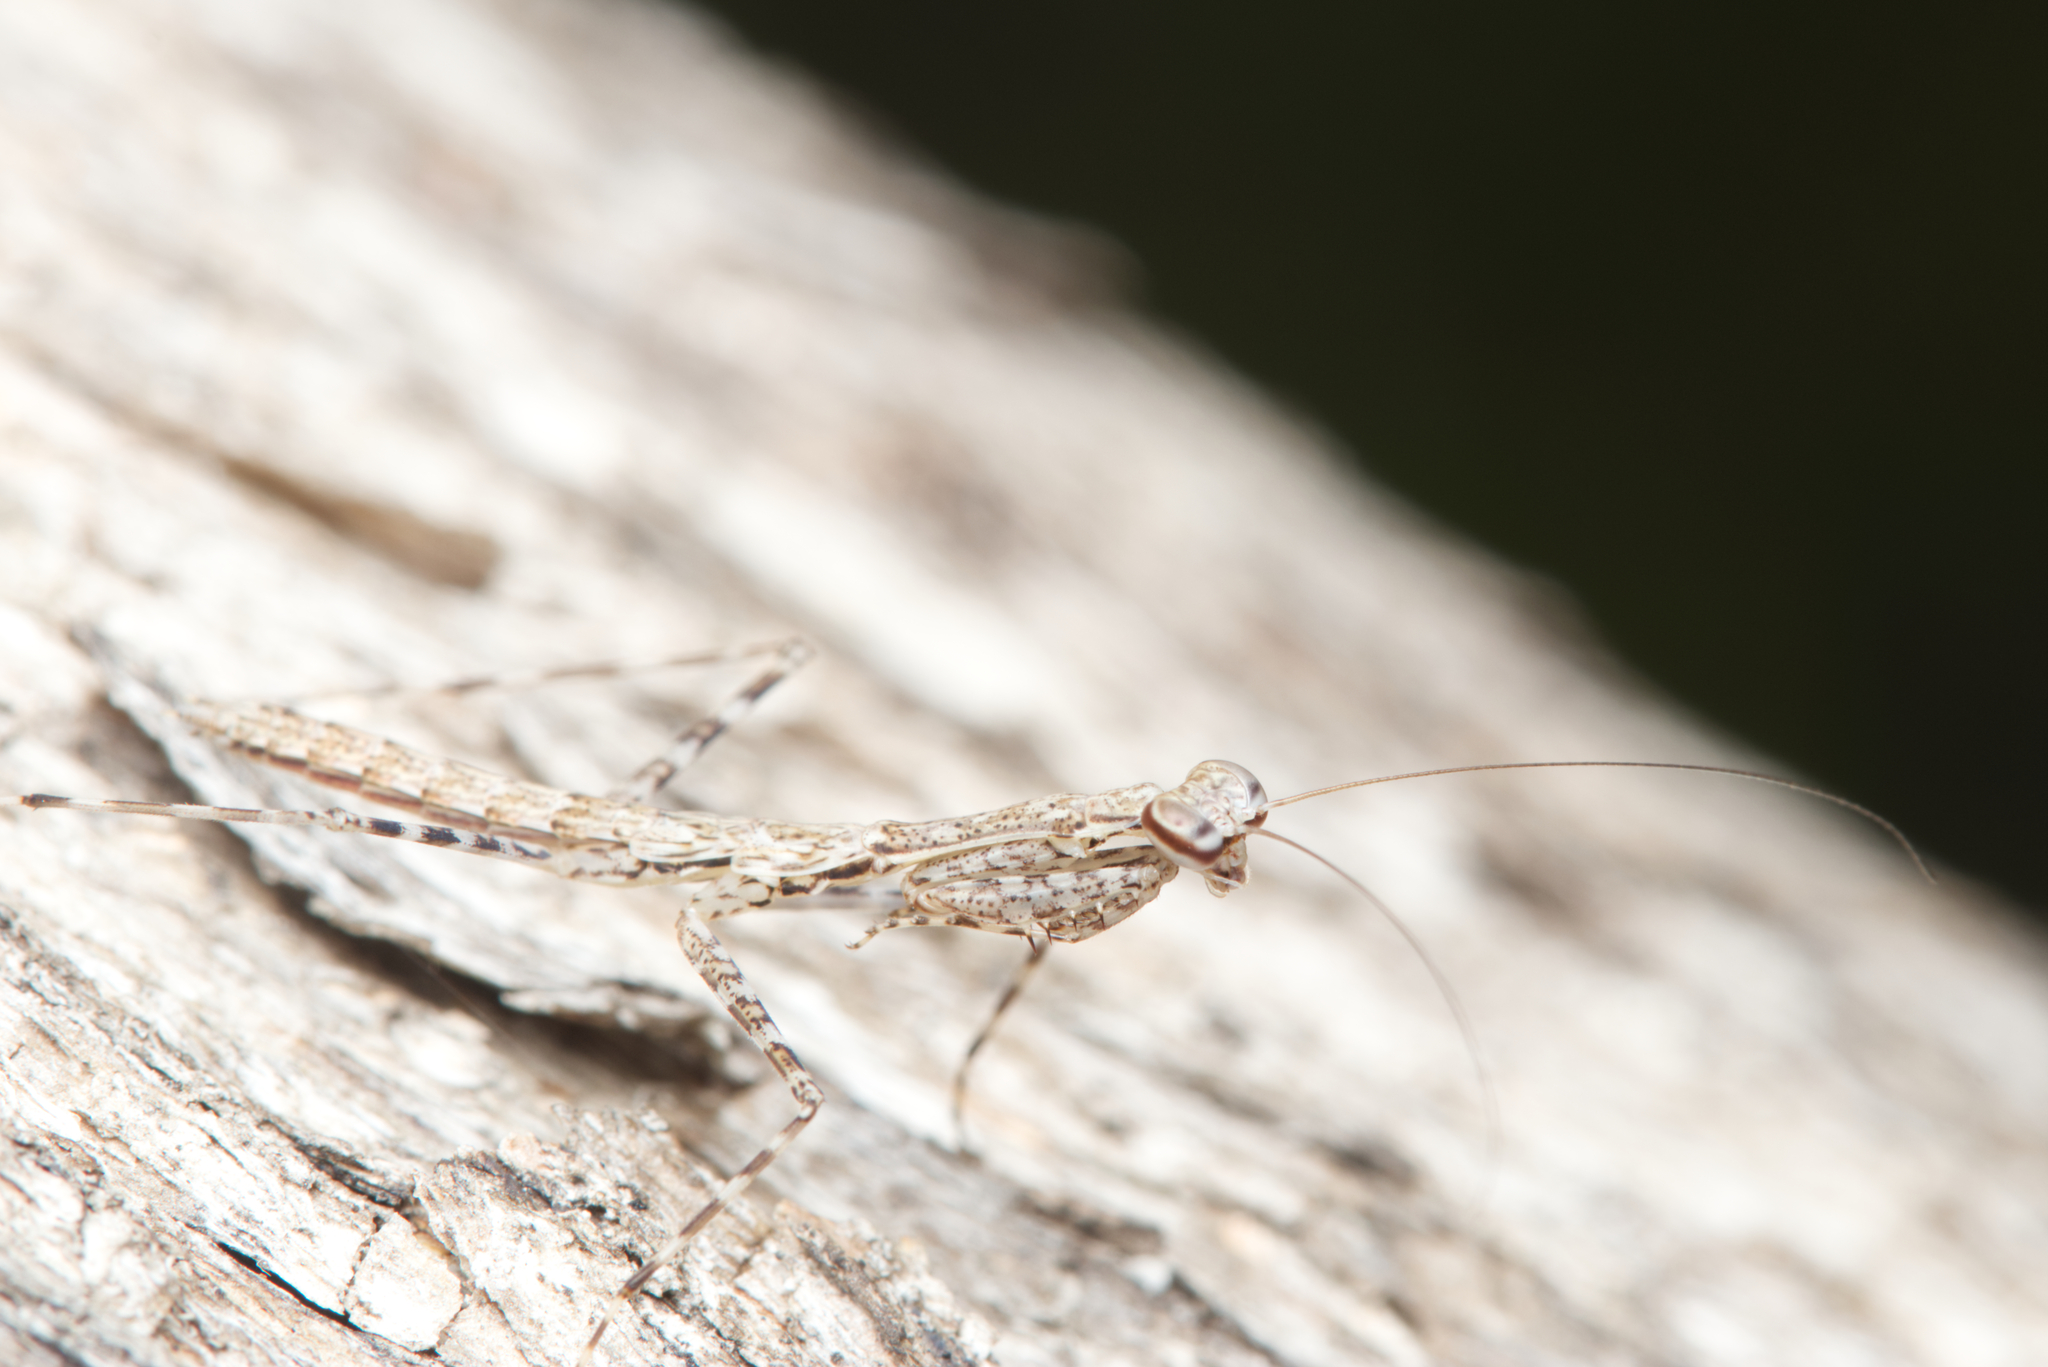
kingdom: Animalia
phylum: Arthropoda
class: Insecta
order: Mantodea
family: Nanomantidae
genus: Ciulfina
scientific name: Ciulfina baldersoni
